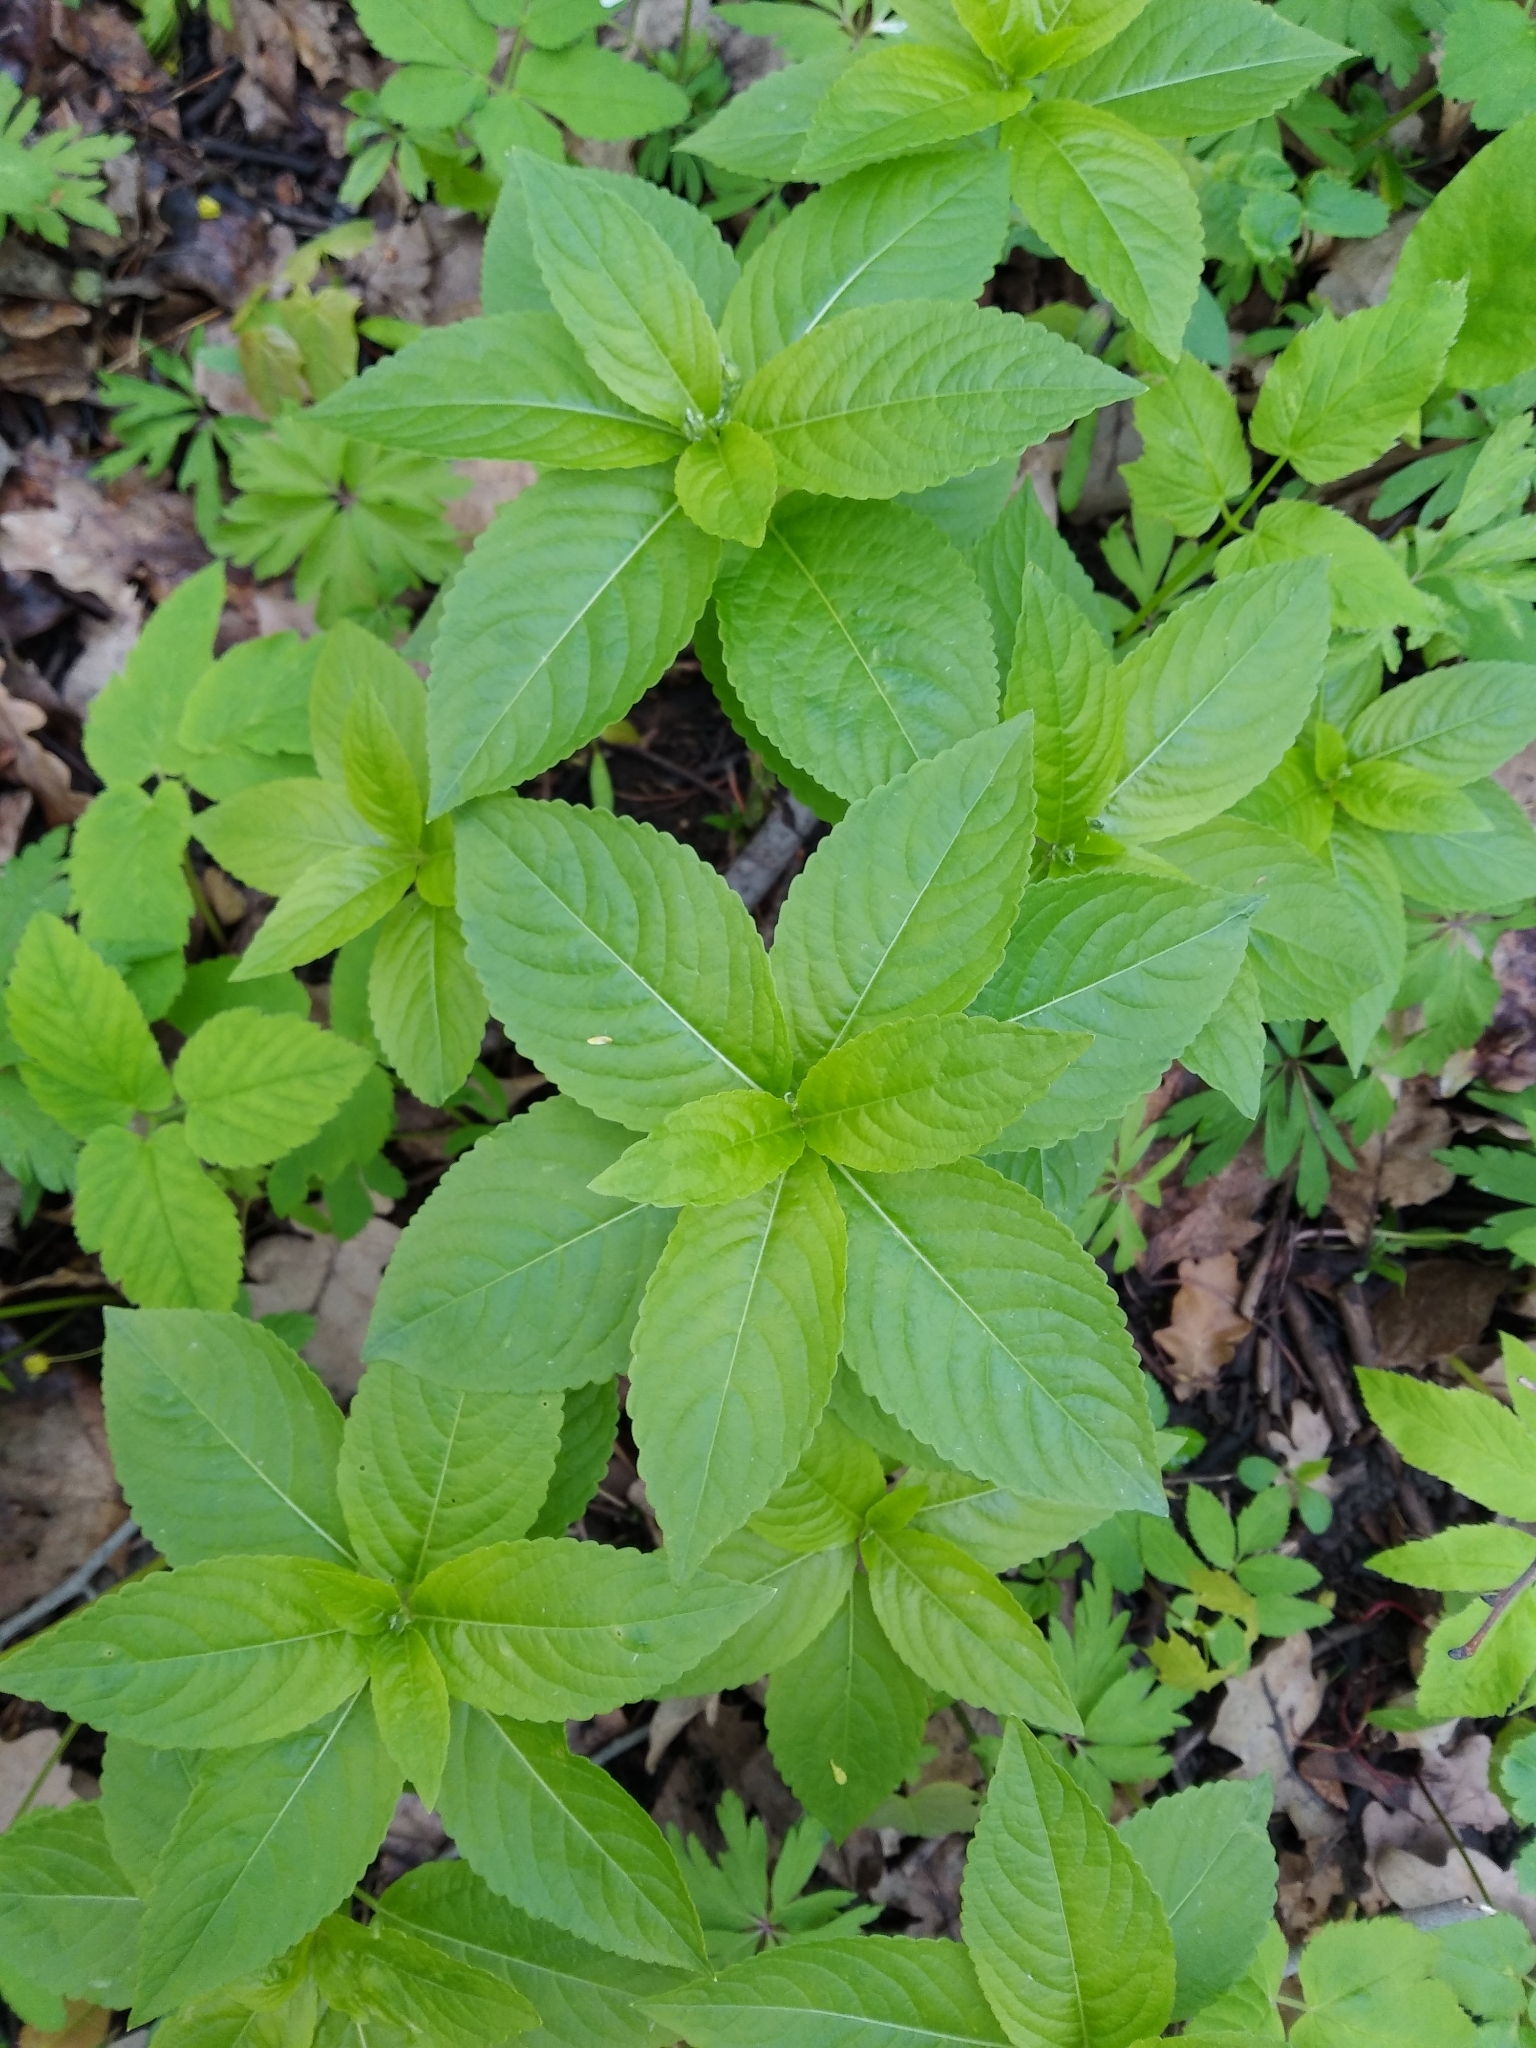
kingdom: Plantae
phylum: Tracheophyta
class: Magnoliopsida
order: Malpighiales
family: Euphorbiaceae
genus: Mercurialis
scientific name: Mercurialis perennis
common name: Dog mercury
